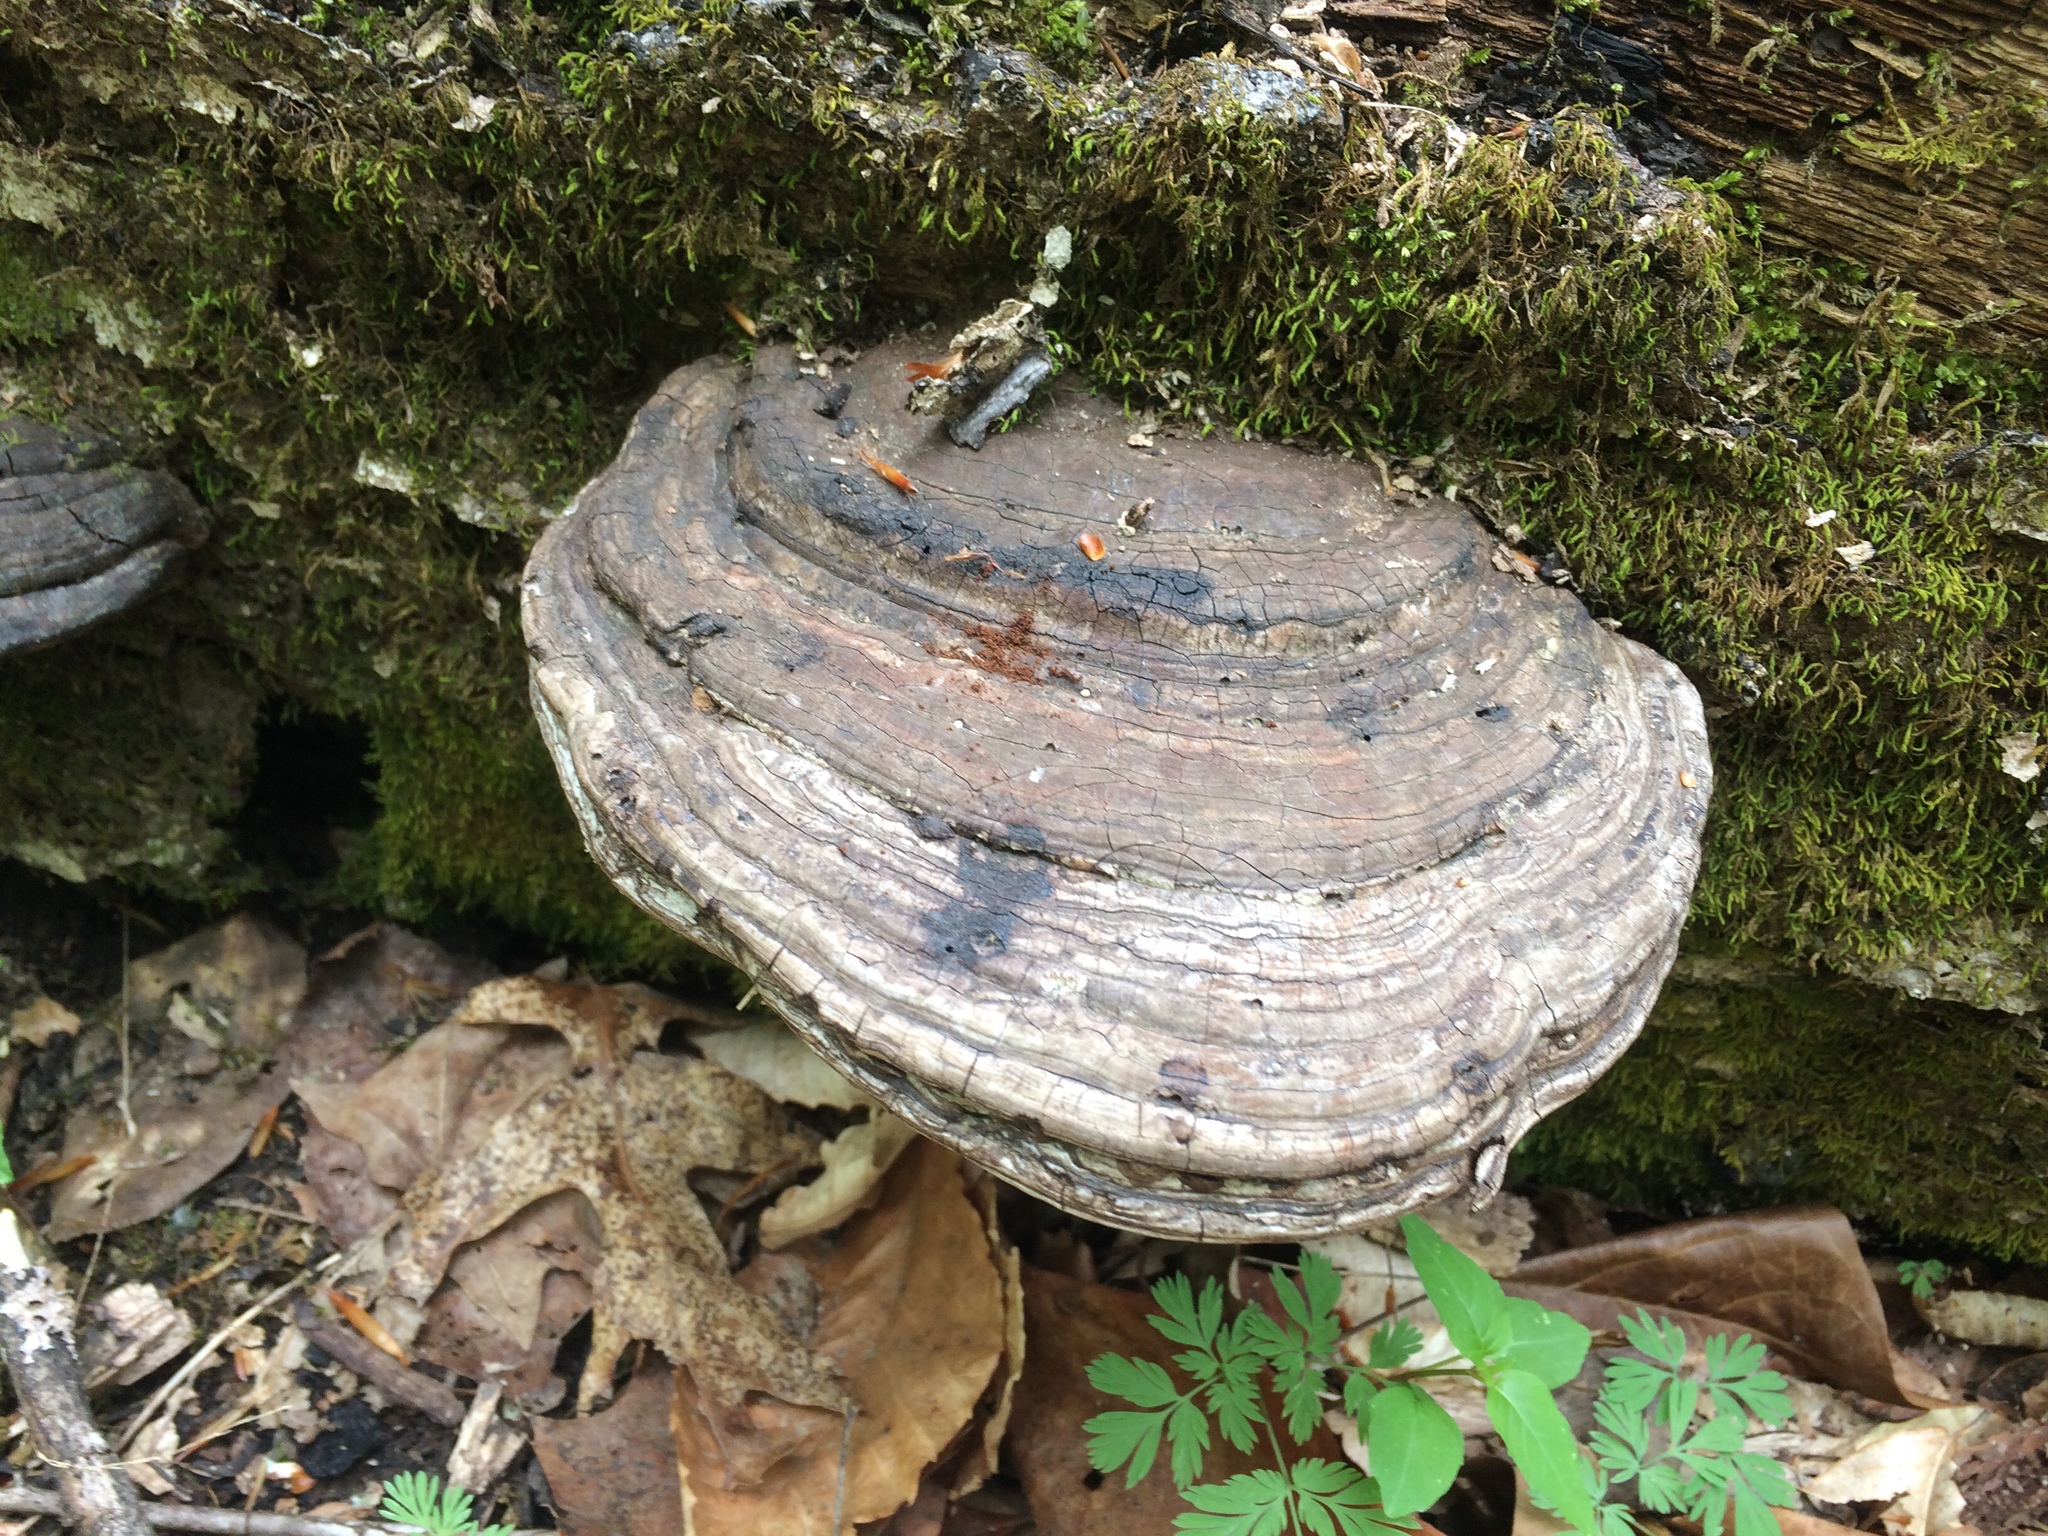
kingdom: Fungi
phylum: Basidiomycota
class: Agaricomycetes
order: Polyporales
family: Polyporaceae
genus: Ganoderma
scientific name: Ganoderma applanatum
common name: Artist's bracket
